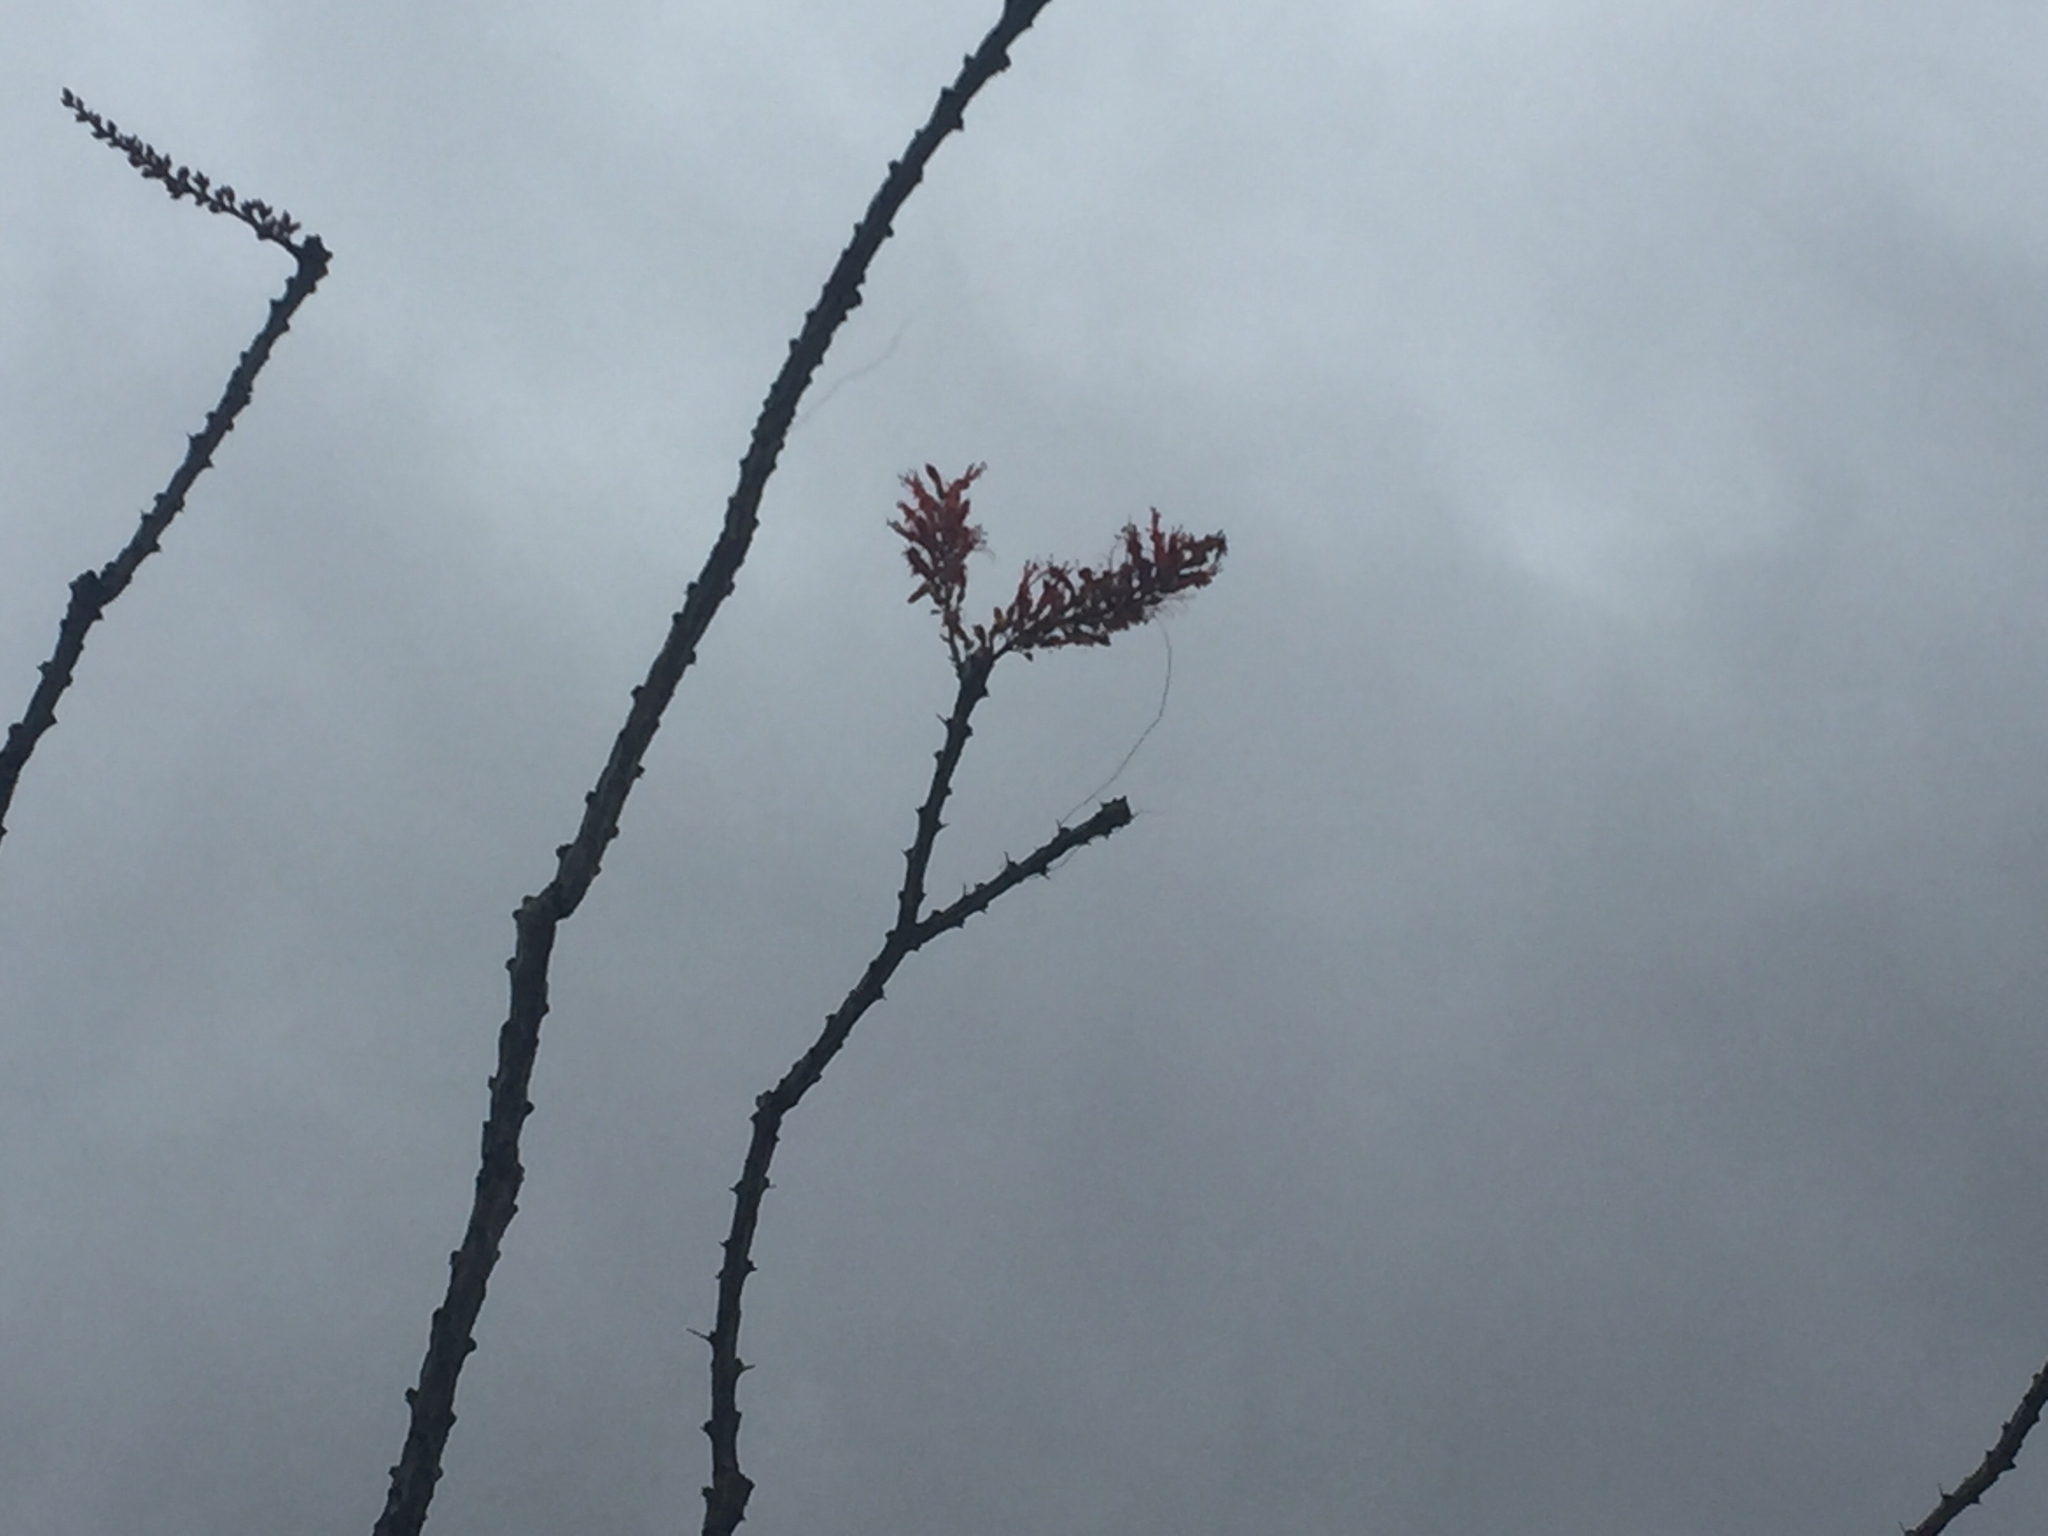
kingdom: Plantae
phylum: Tracheophyta
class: Magnoliopsida
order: Ericales
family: Fouquieriaceae
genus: Fouquieria
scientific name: Fouquieria splendens
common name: Vine-cactus
